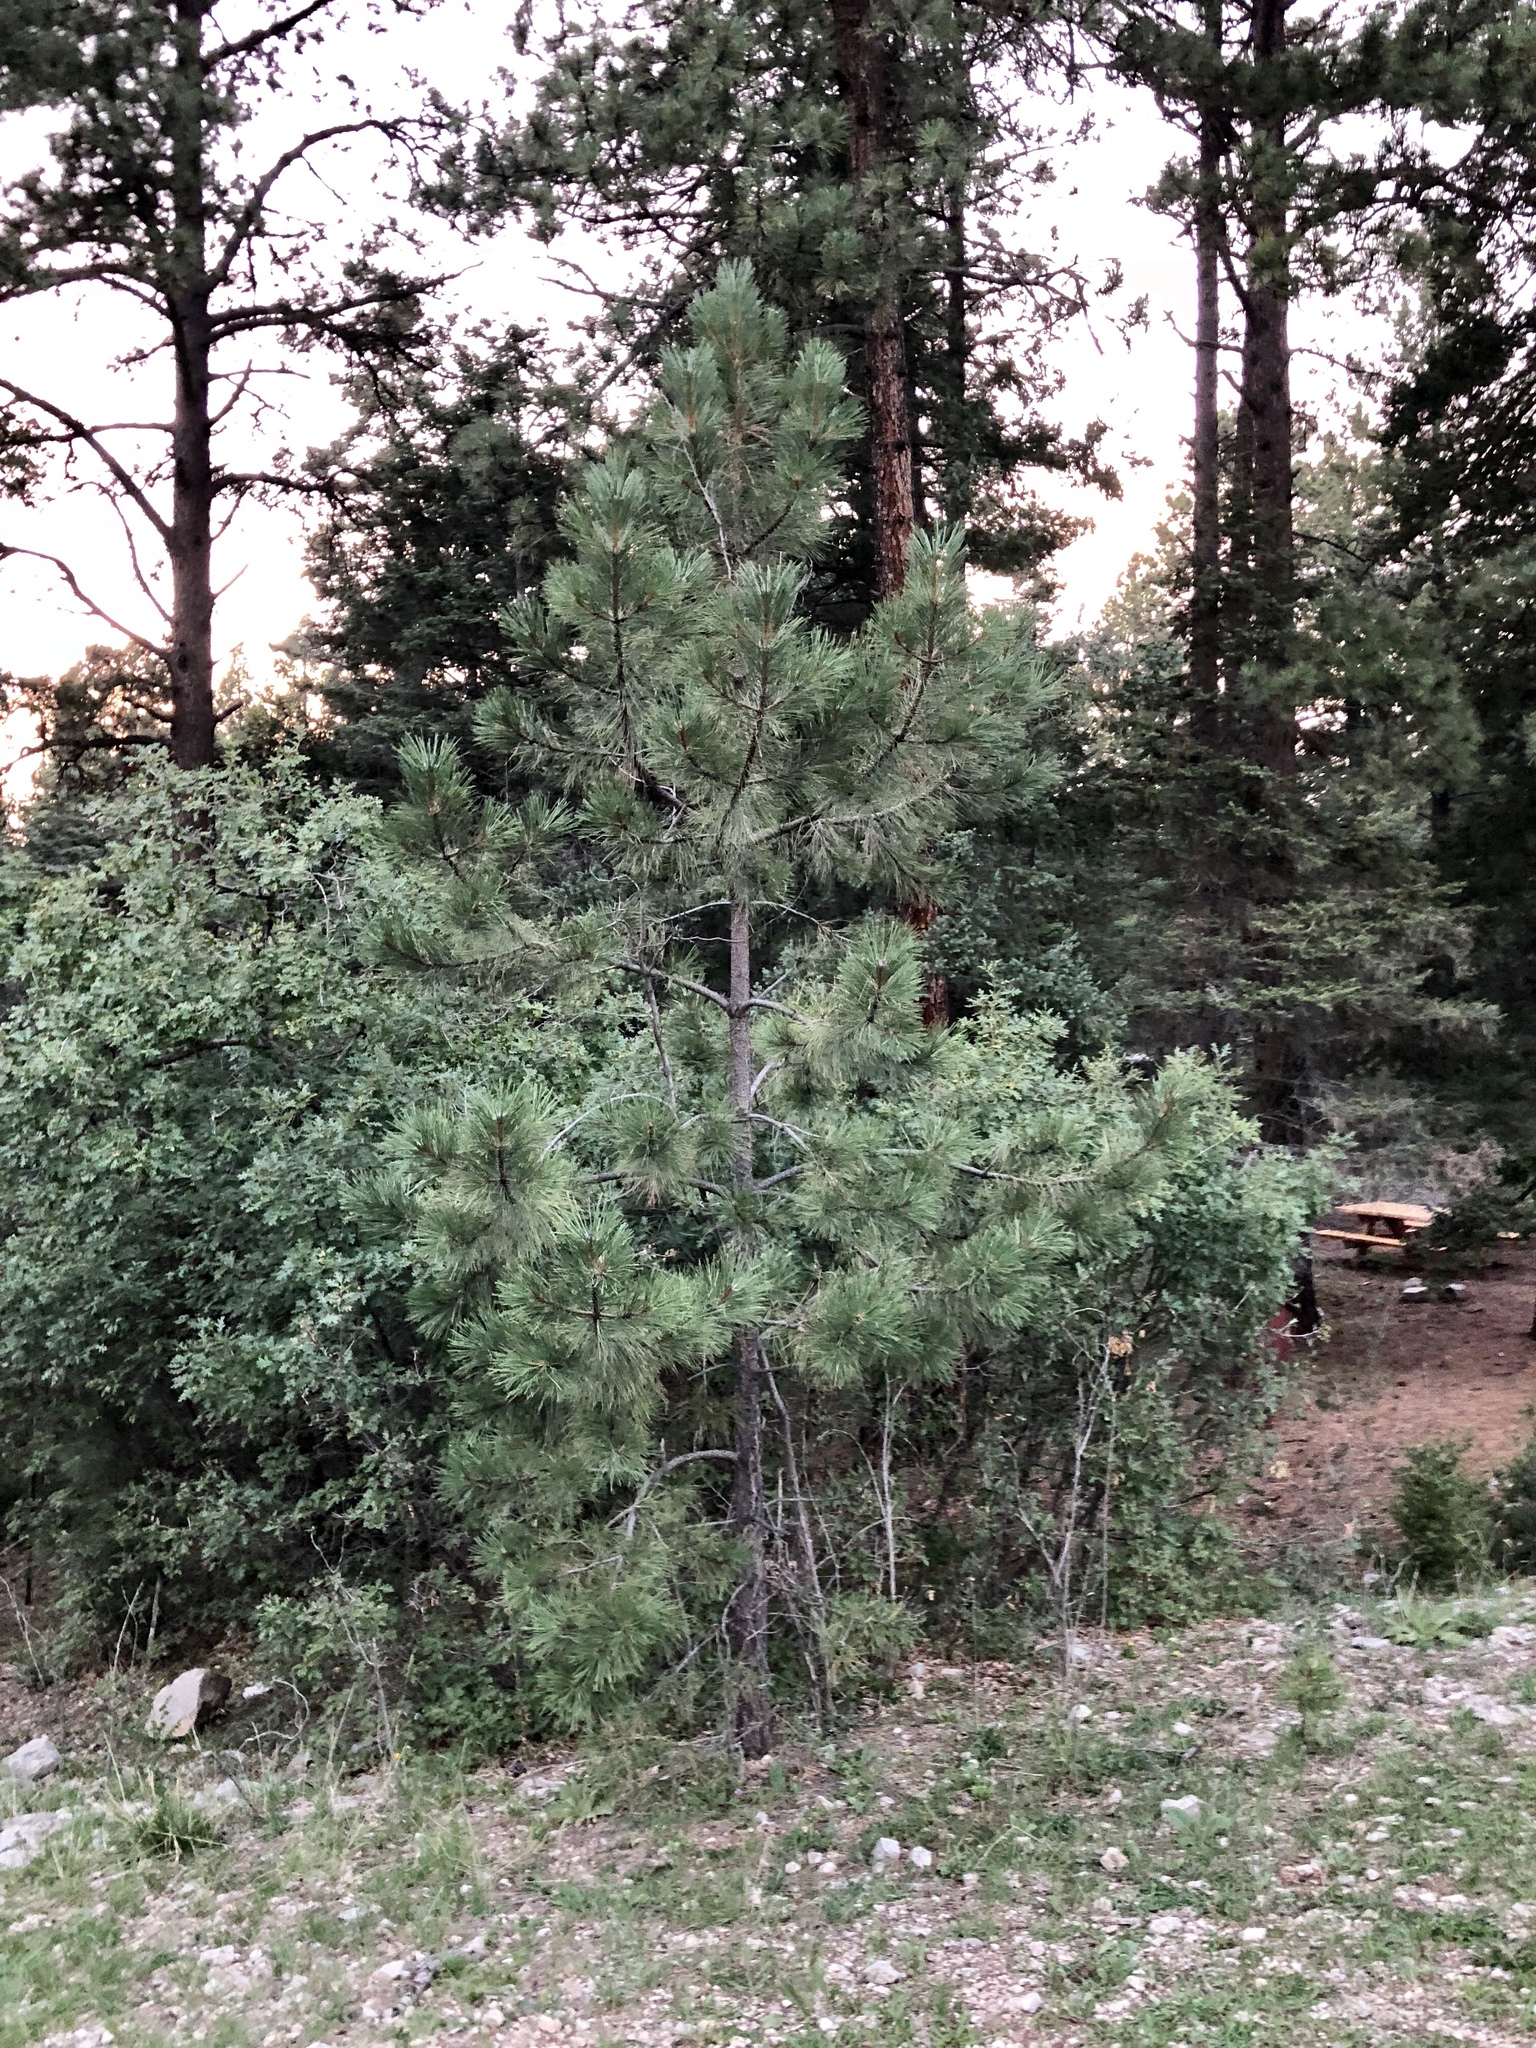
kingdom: Plantae
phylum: Tracheophyta
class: Pinopsida
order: Pinales
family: Pinaceae
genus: Pinus
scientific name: Pinus ponderosa
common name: Western yellow-pine
